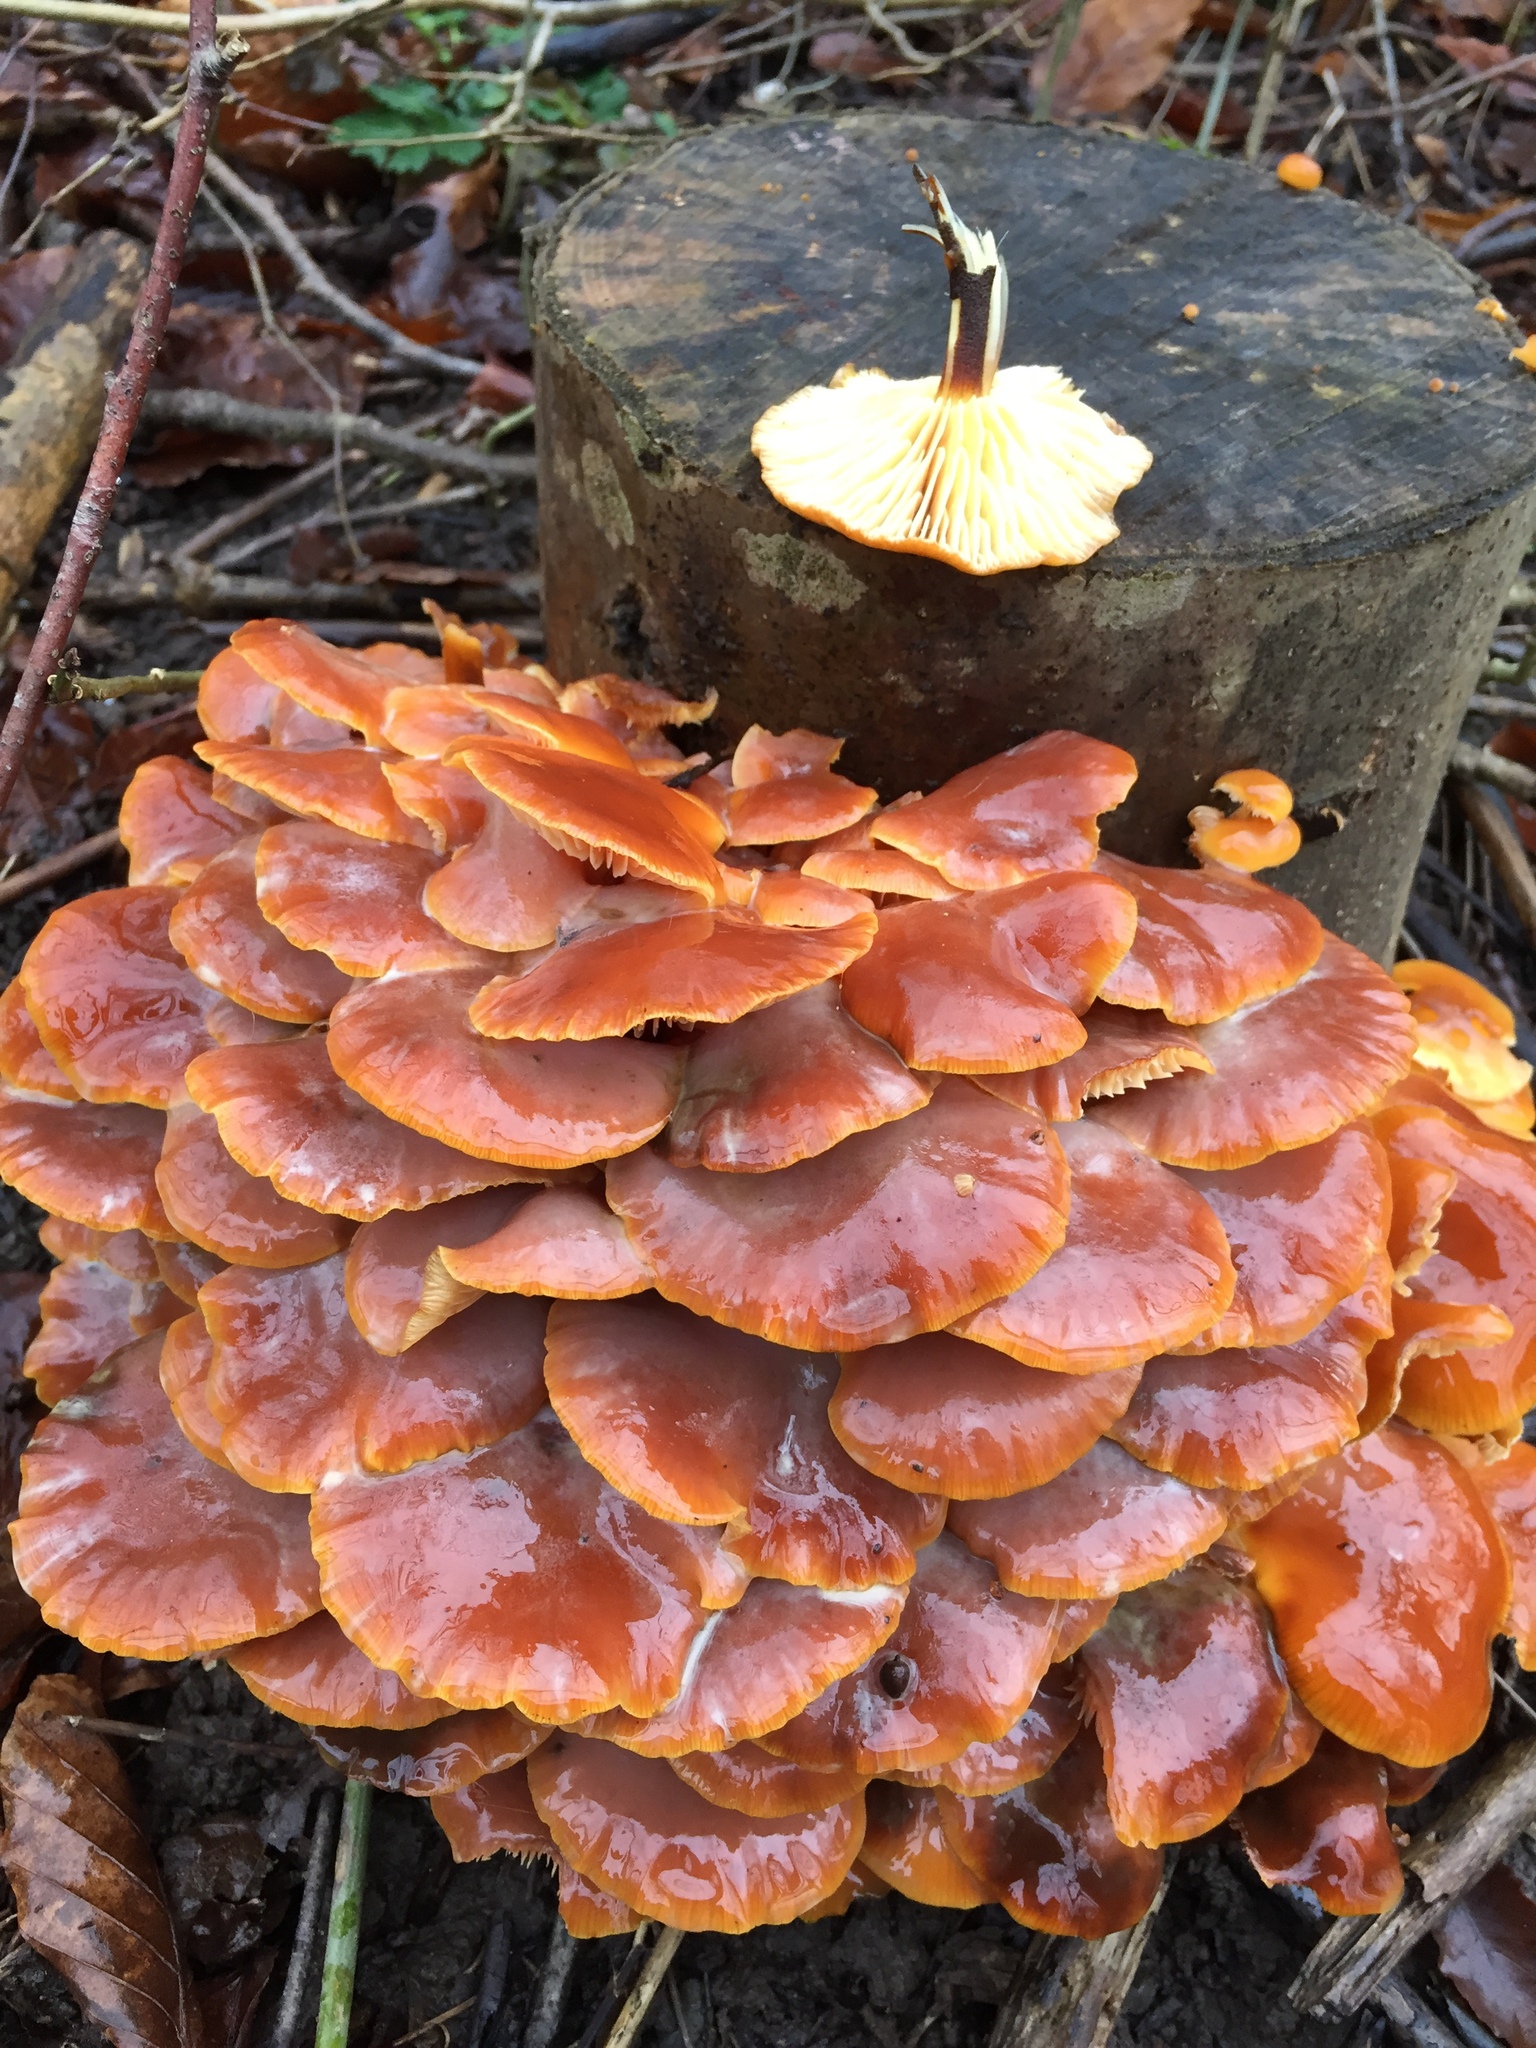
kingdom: Fungi
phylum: Basidiomycota
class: Agaricomycetes
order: Agaricales
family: Physalacriaceae
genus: Flammulina
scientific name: Flammulina
